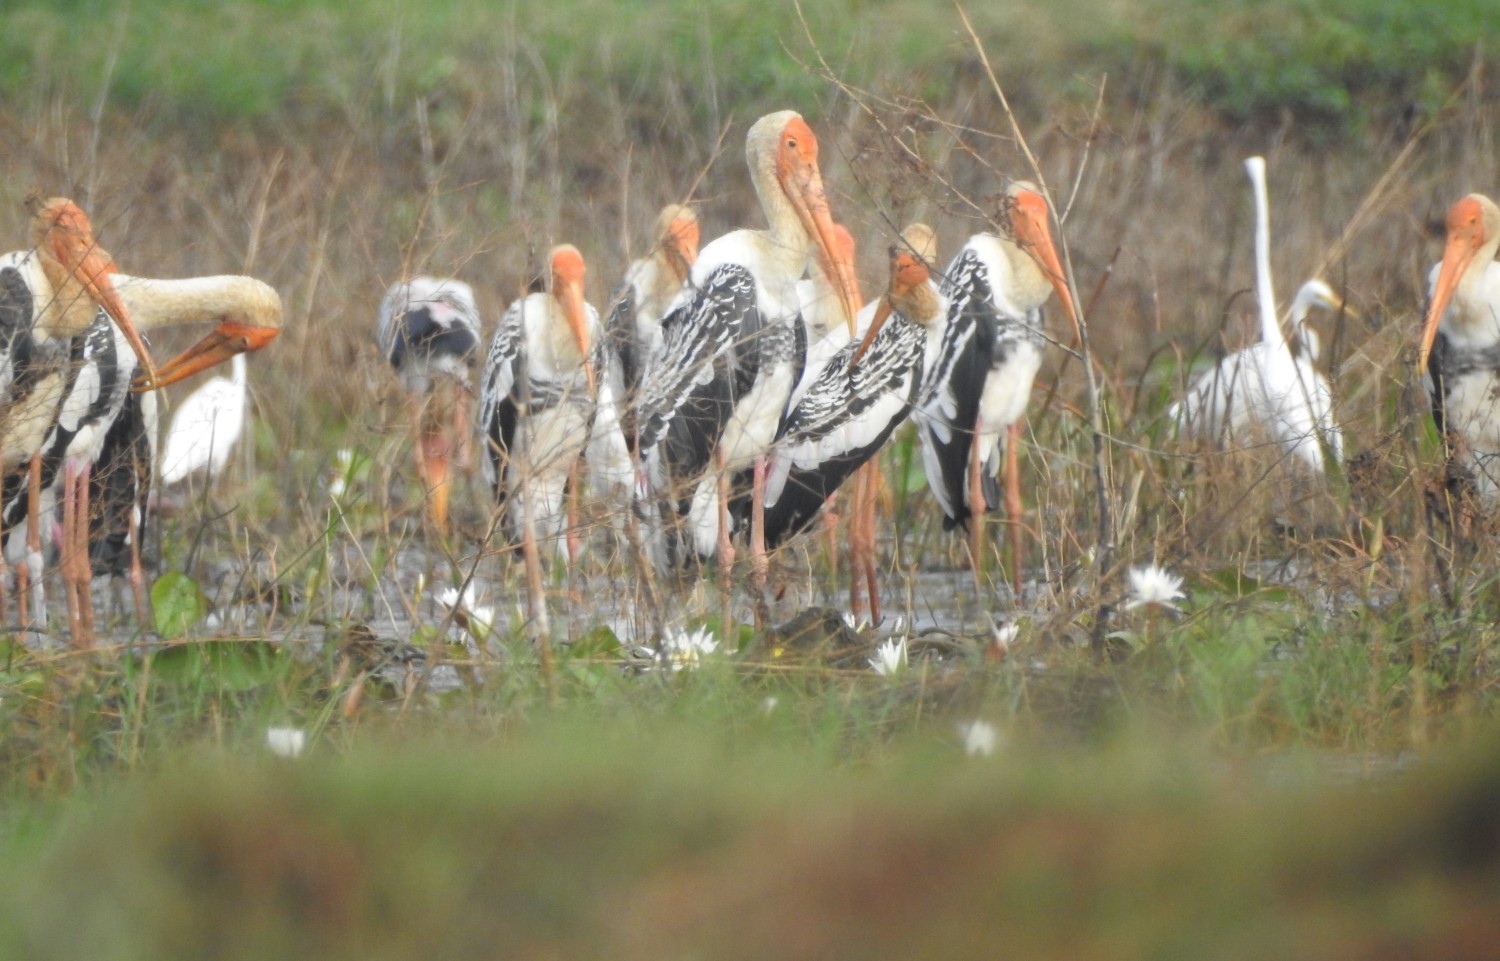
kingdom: Animalia
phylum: Chordata
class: Aves
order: Ciconiiformes
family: Ciconiidae
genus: Mycteria
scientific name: Mycteria leucocephala
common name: Painted stork
